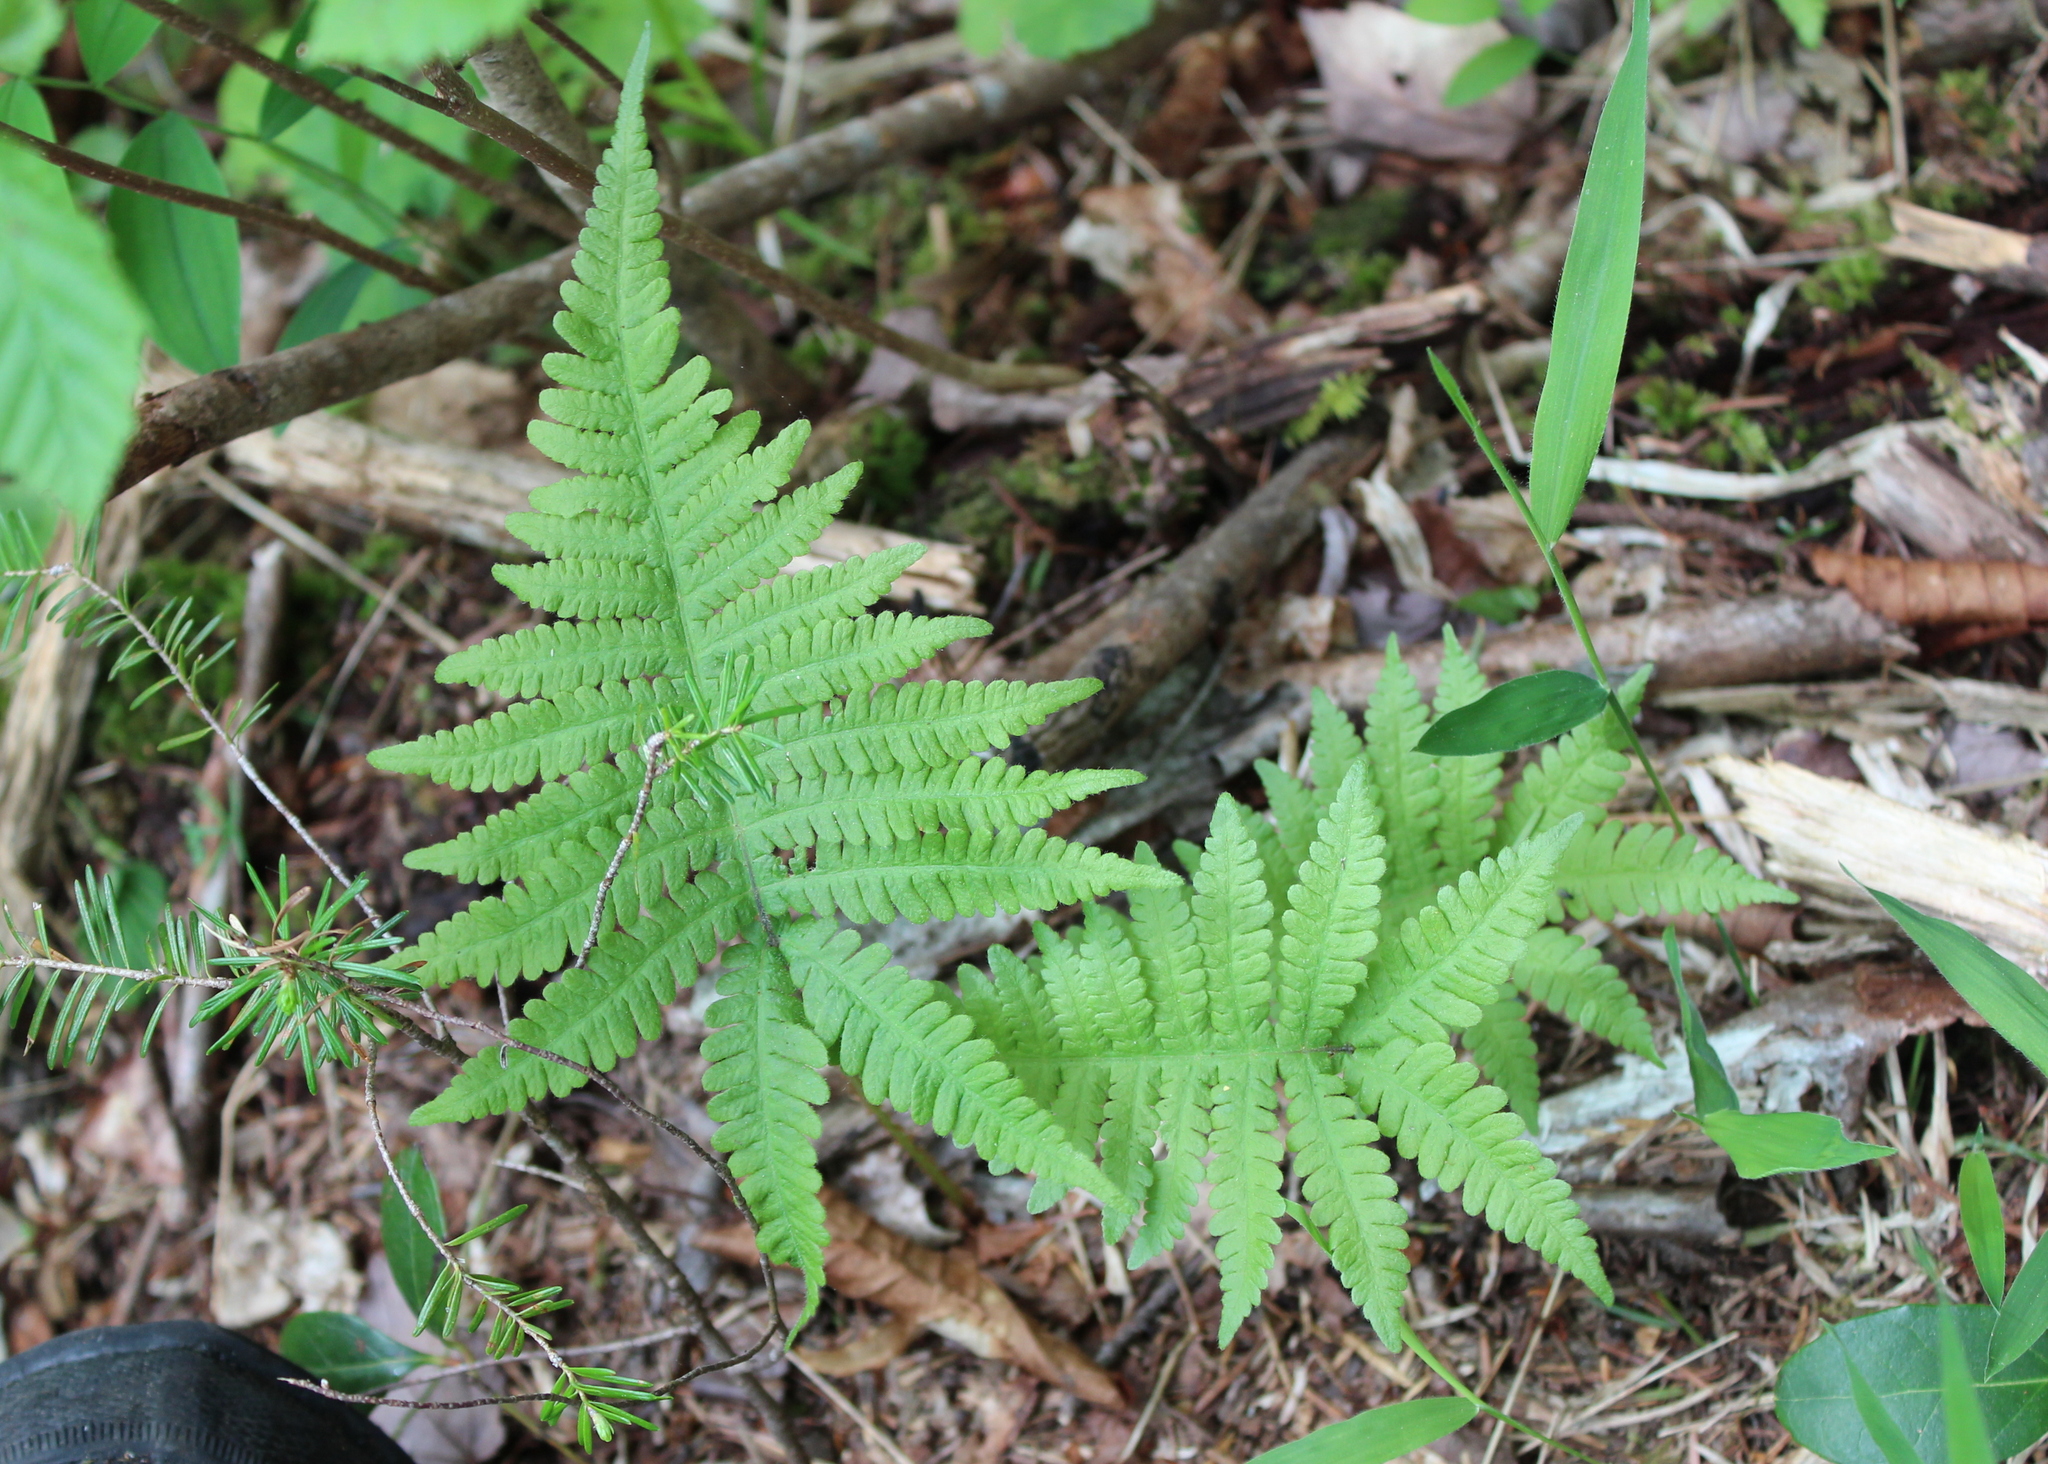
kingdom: Plantae
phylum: Tracheophyta
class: Polypodiopsida
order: Polypodiales
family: Thelypteridaceae
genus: Phegopteris
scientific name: Phegopteris connectilis
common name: Beech fern
